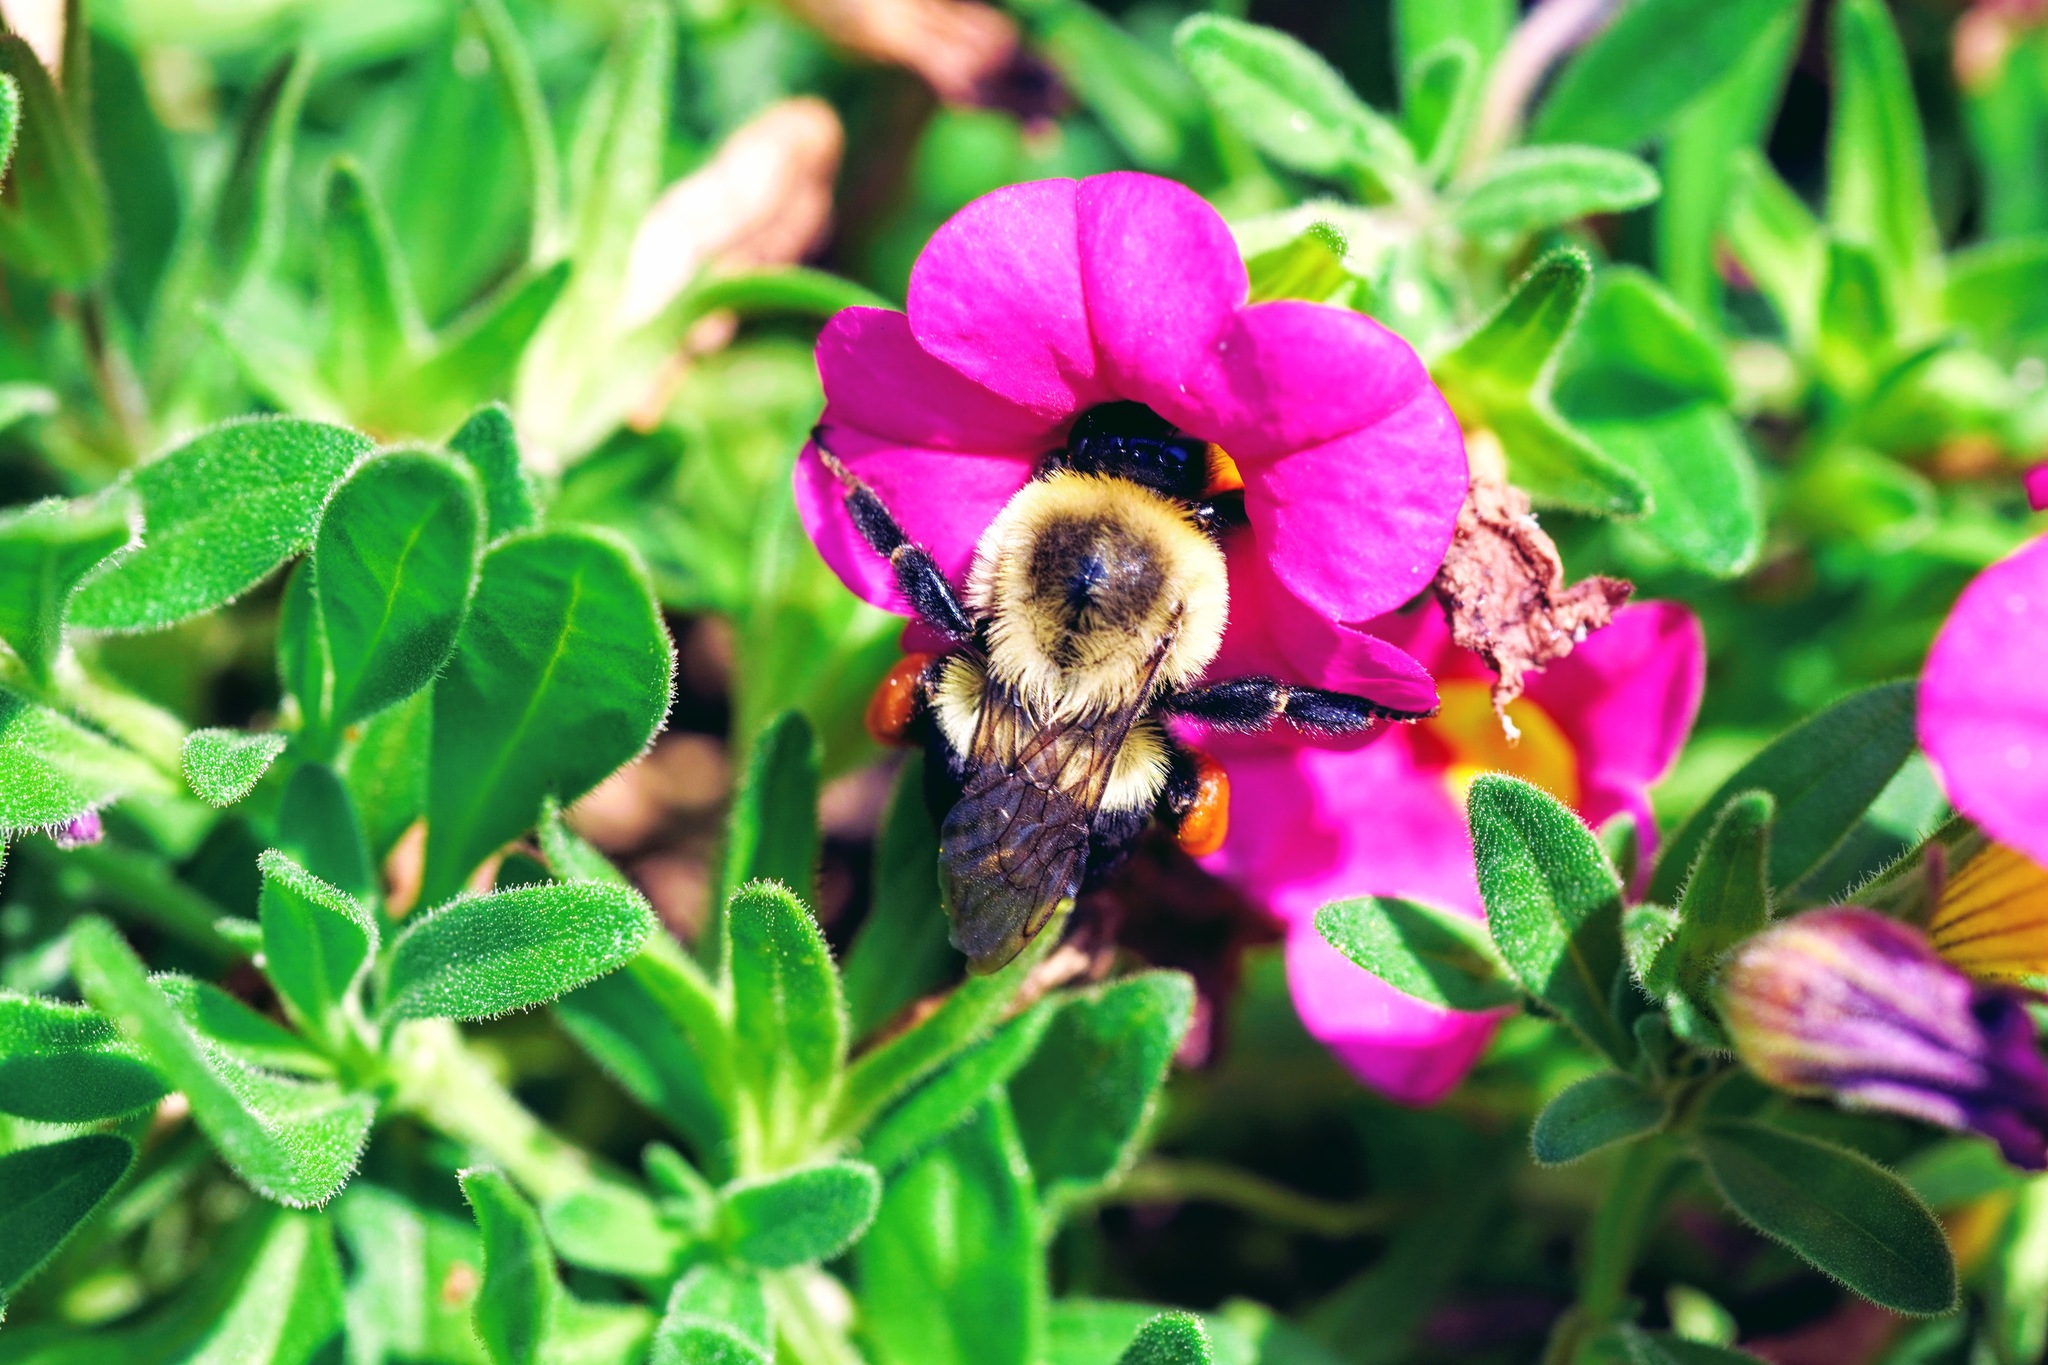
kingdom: Animalia
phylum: Arthropoda
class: Insecta
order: Hymenoptera
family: Apidae
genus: Bombus
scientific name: Bombus impatiens
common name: Common eastern bumble bee
